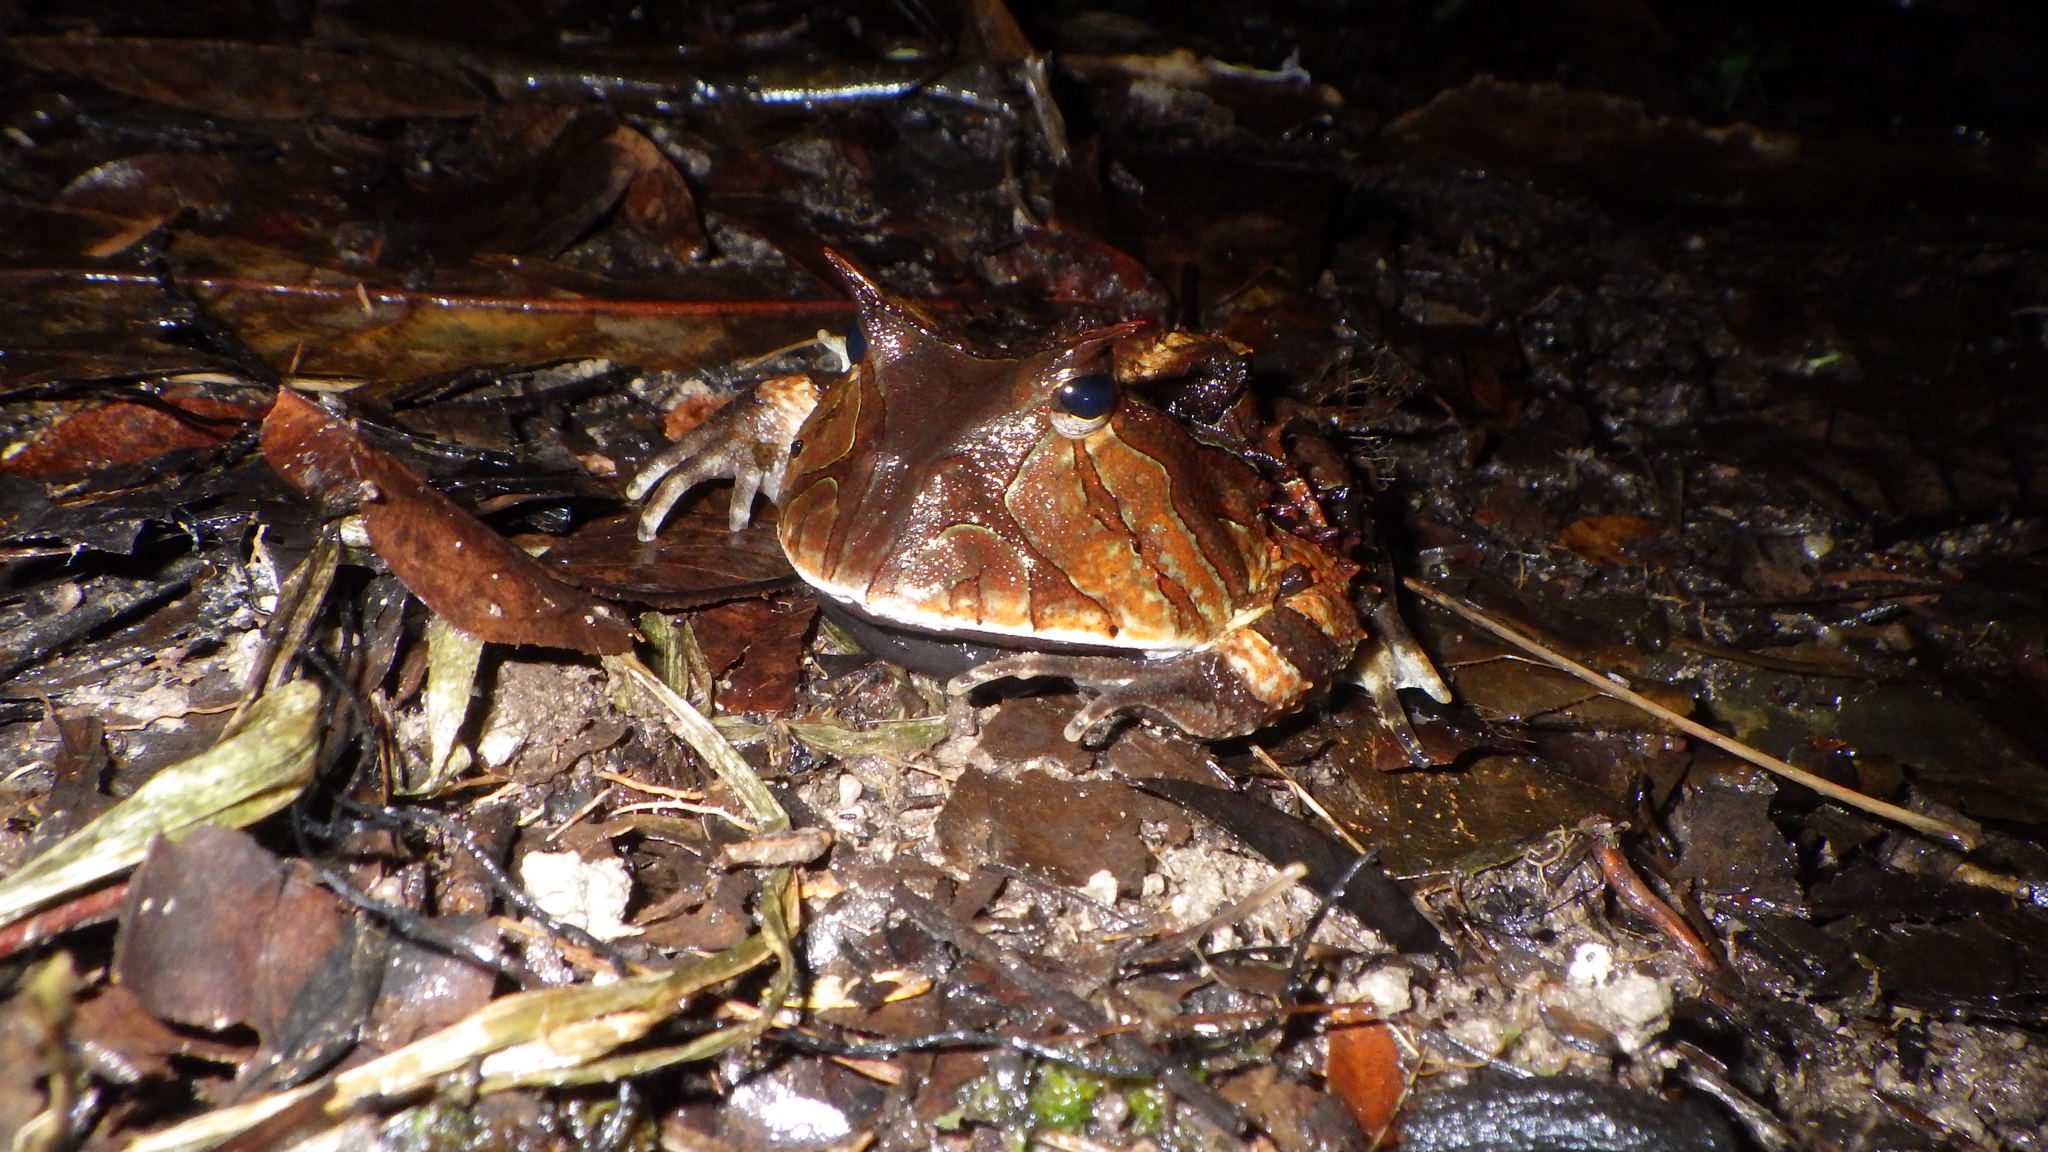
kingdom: Animalia
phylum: Chordata
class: Amphibia
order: Anura
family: Ceratophryidae
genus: Ceratophrys
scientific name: Ceratophrys cornuta
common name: Amazonian horned frog
